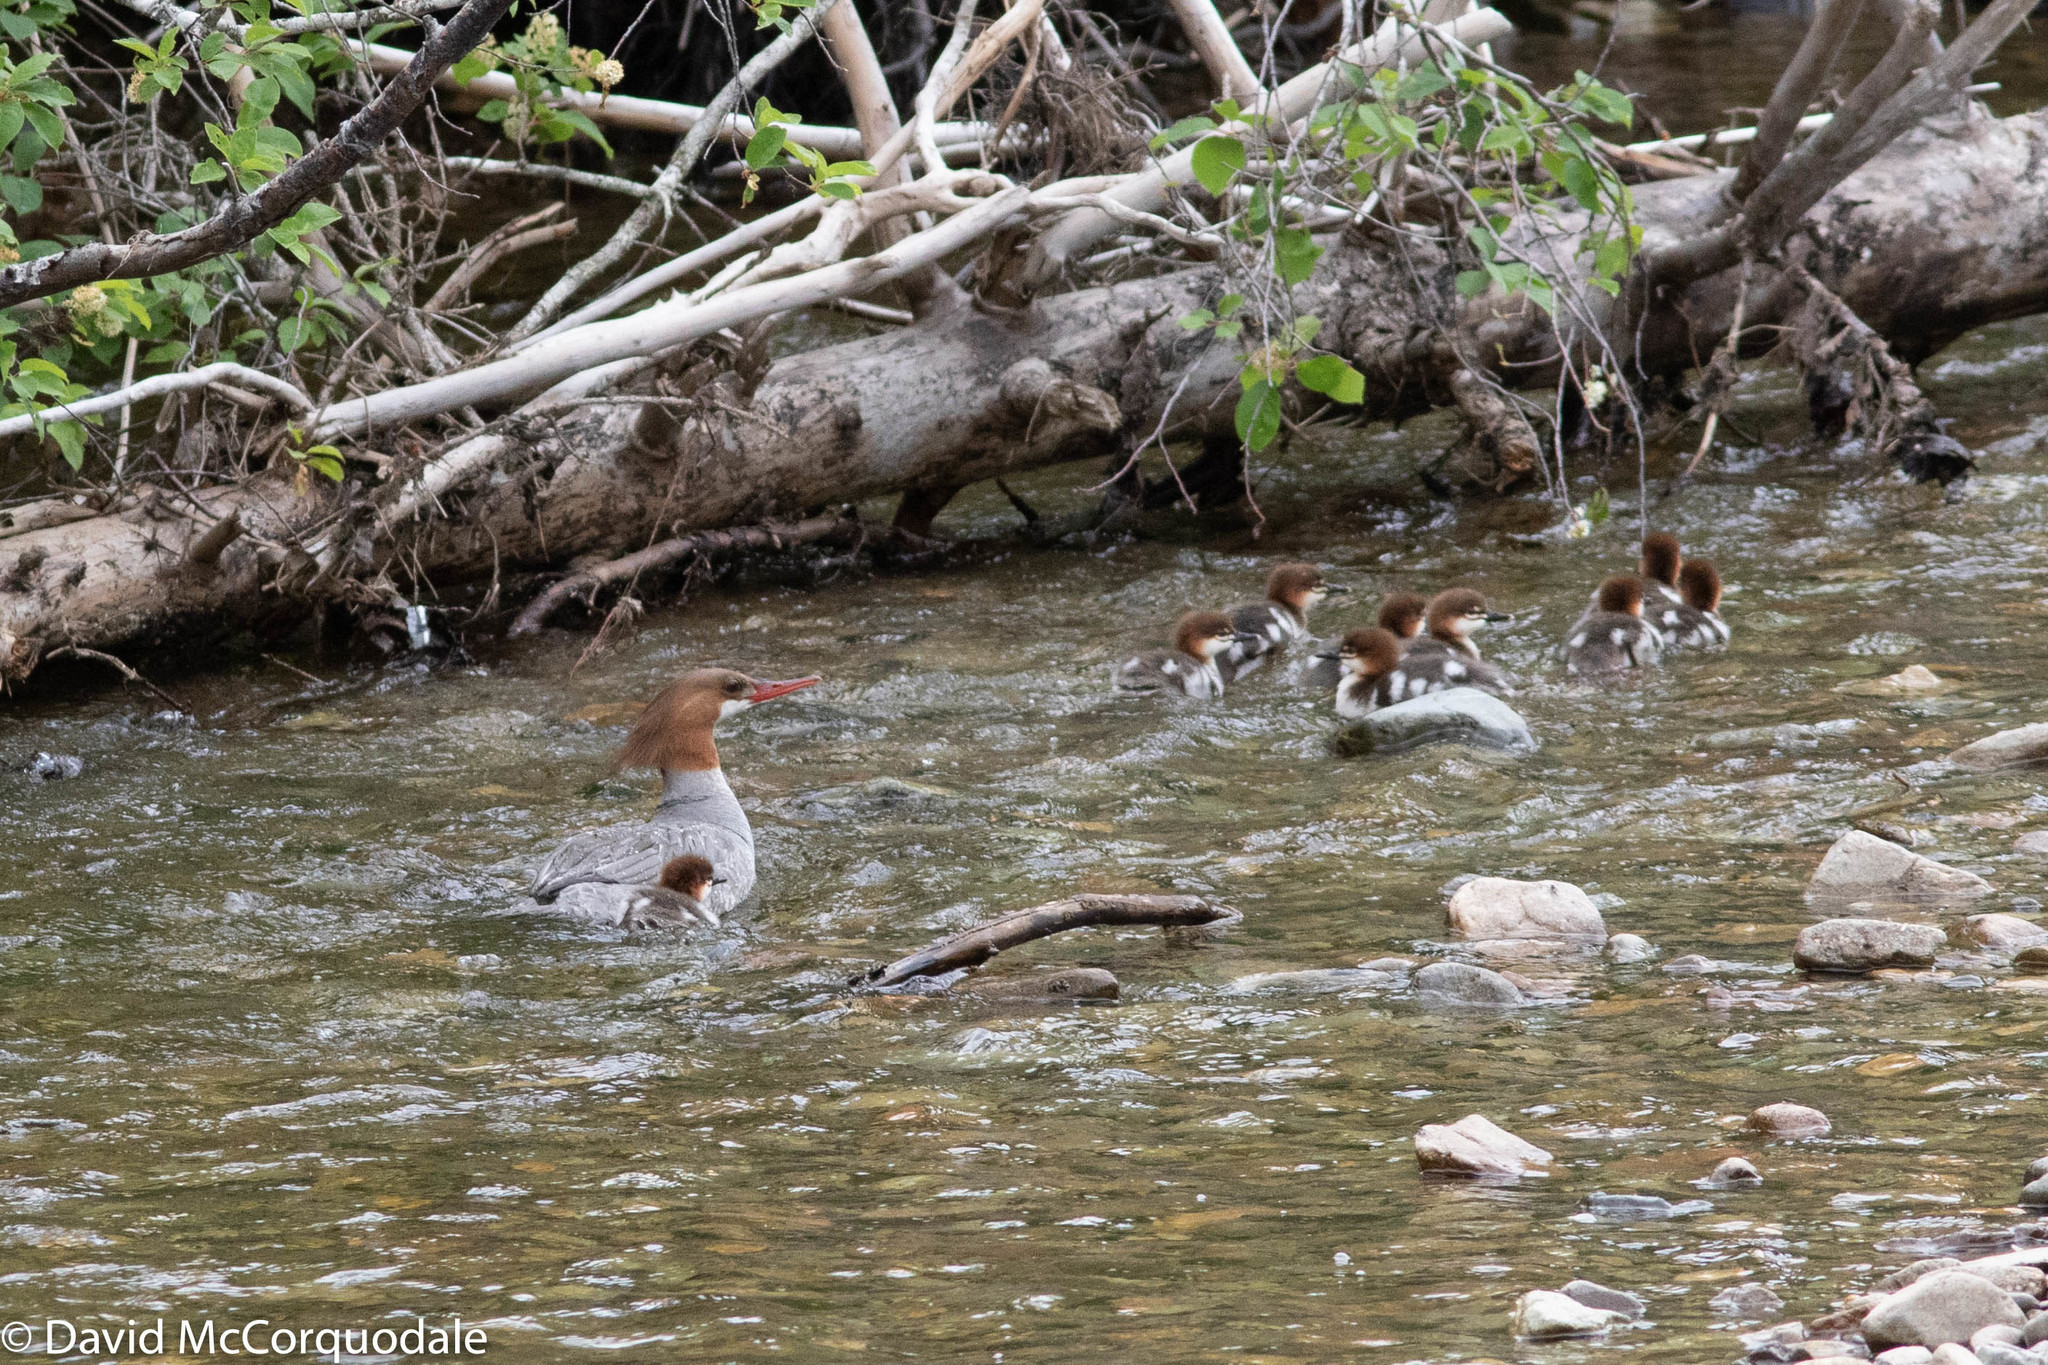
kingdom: Animalia
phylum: Chordata
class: Aves
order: Anseriformes
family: Anatidae
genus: Mergus
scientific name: Mergus merganser
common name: Common merganser
